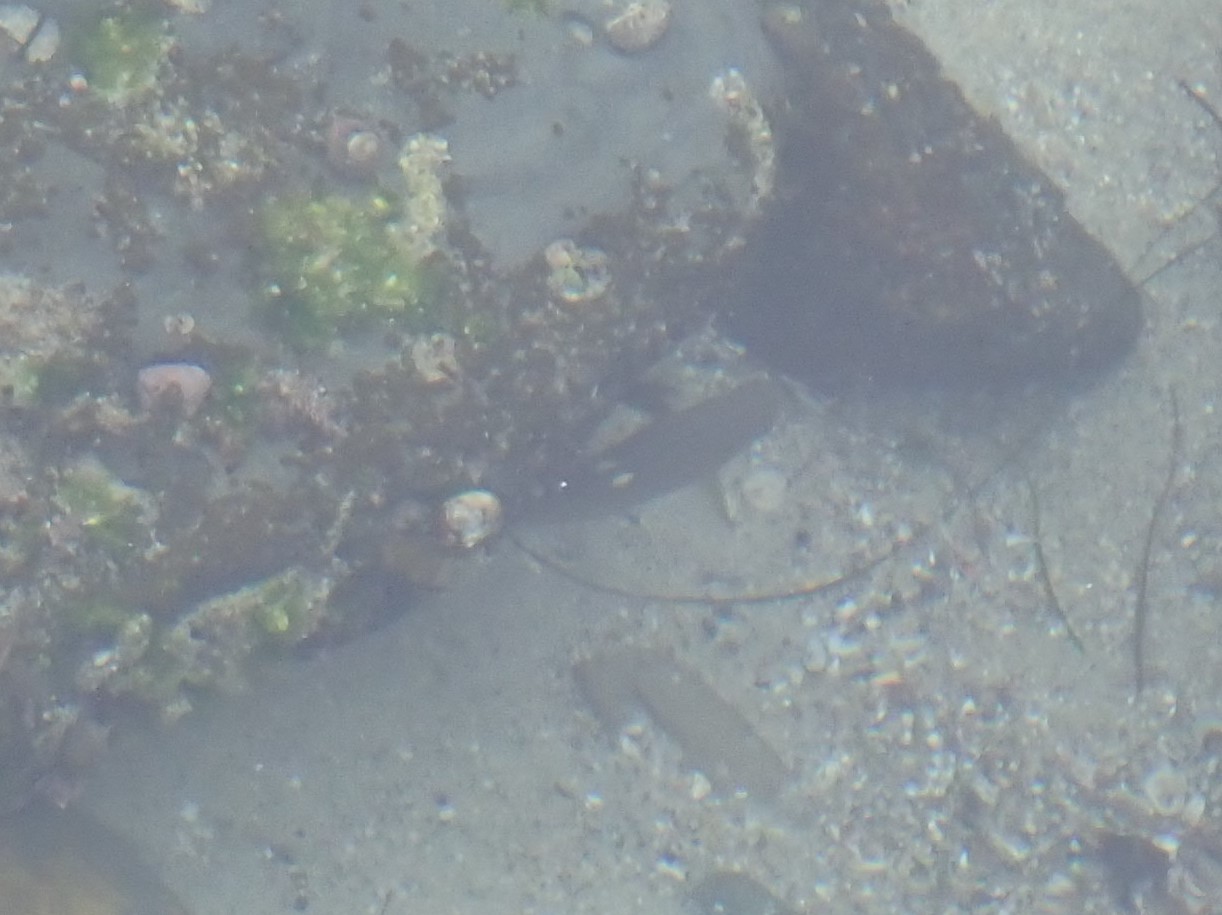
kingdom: Animalia
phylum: Chordata
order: Perciformes
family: Kyphosidae
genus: Girella
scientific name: Girella nigricans
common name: Opaleye
